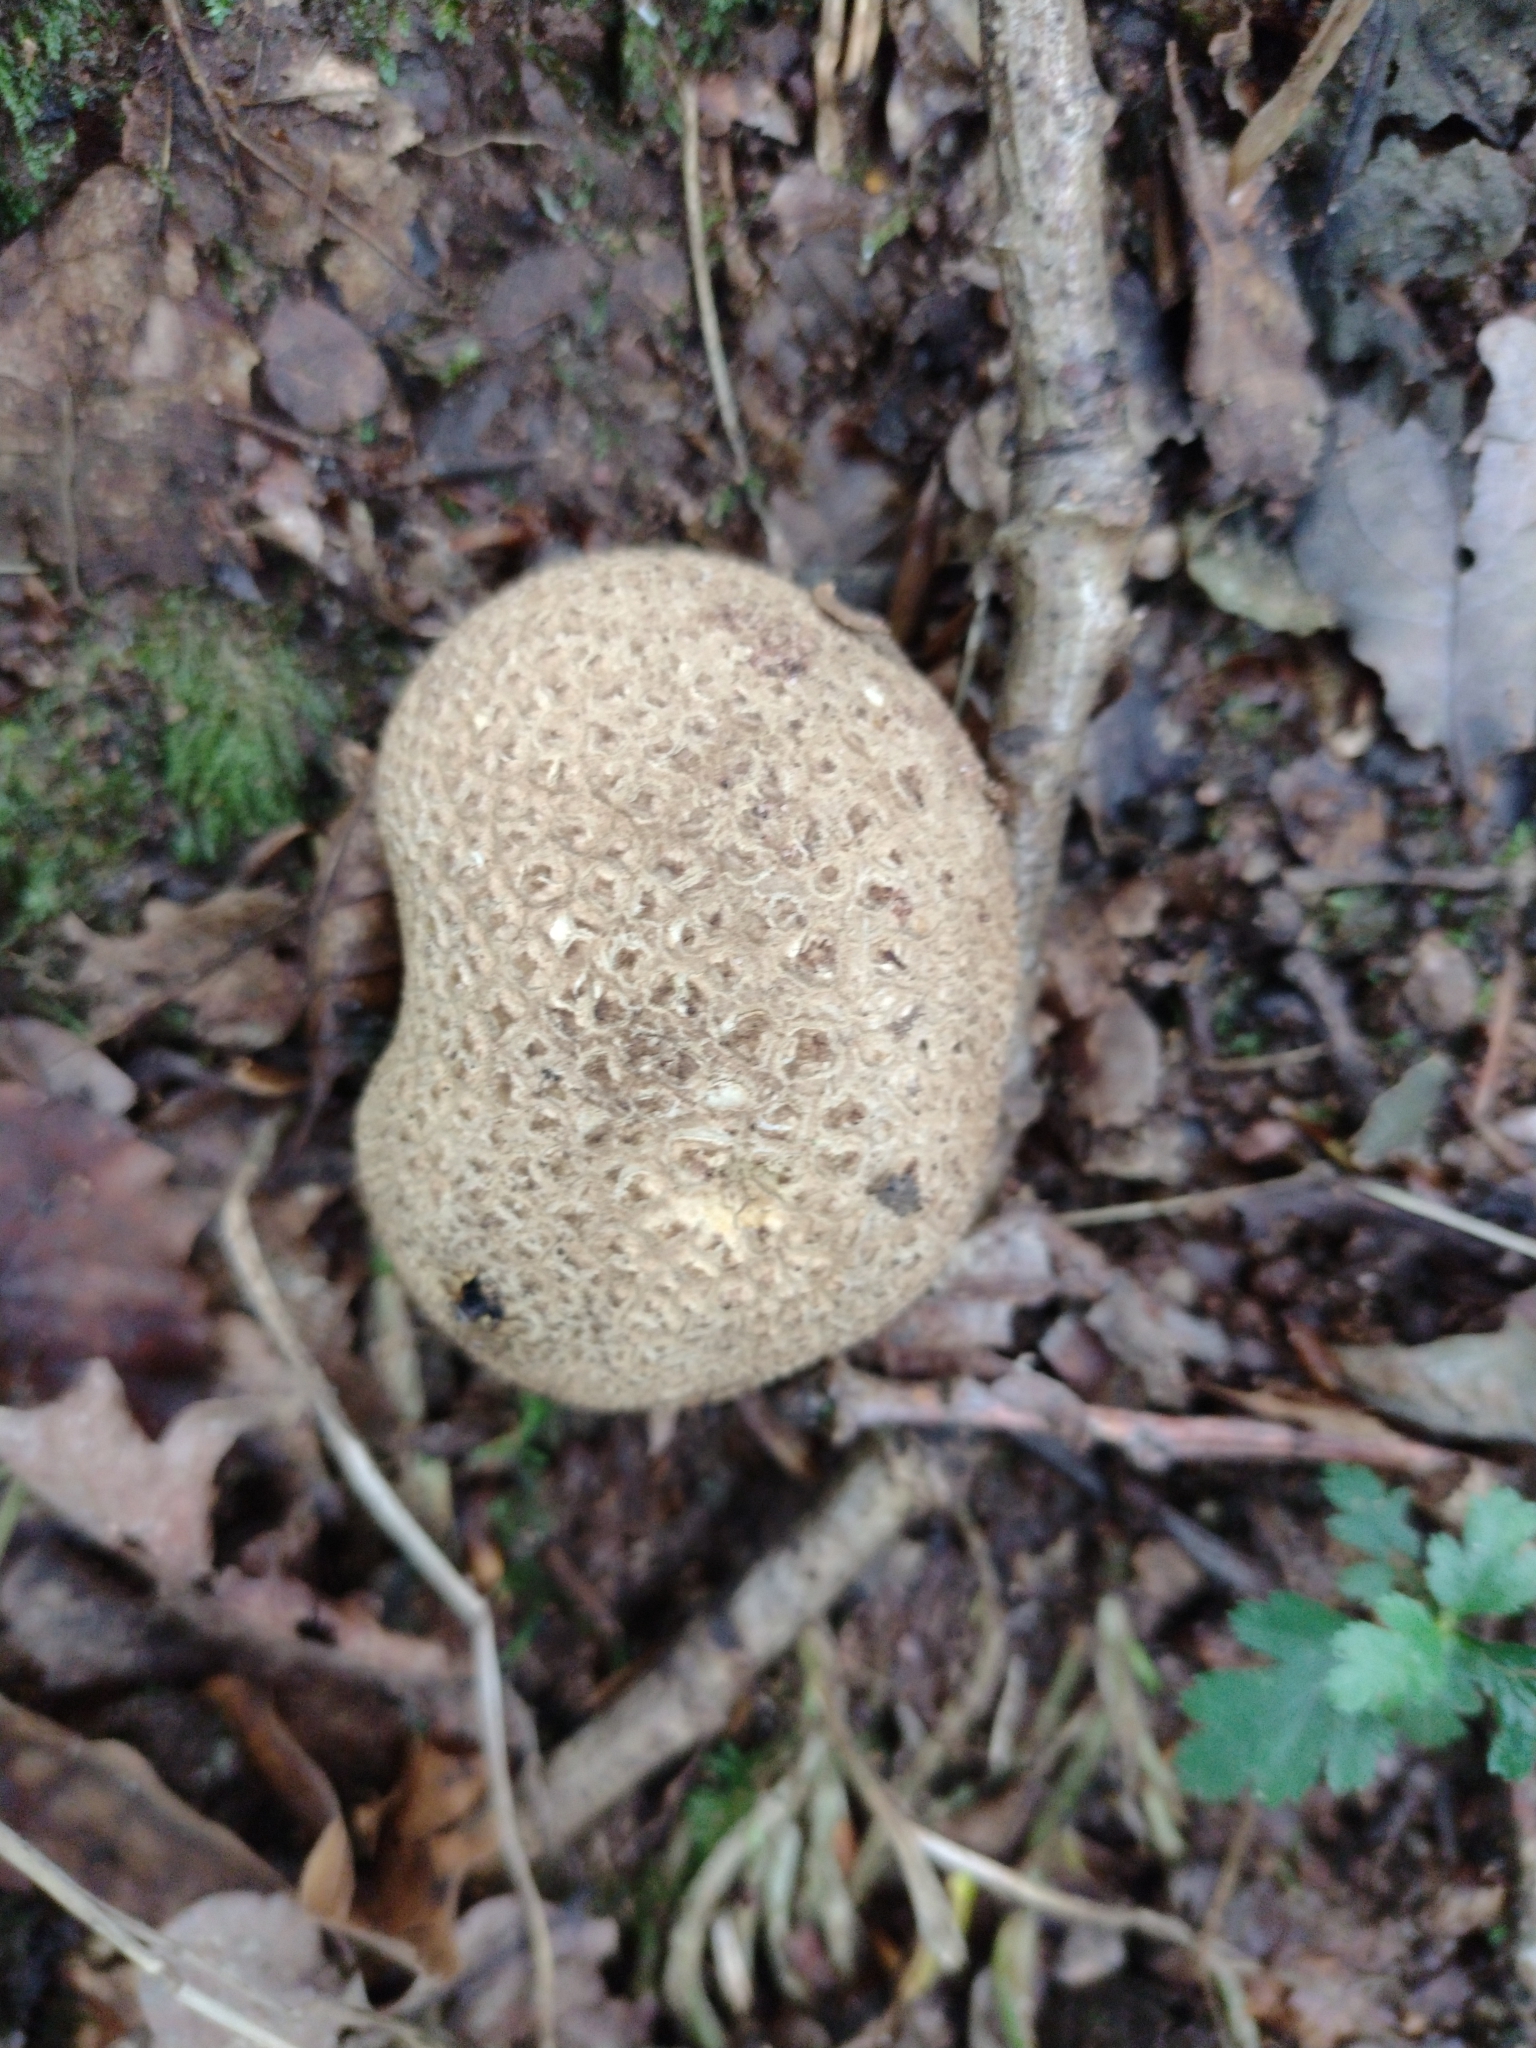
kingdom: Fungi
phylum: Basidiomycota
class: Agaricomycetes
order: Boletales
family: Sclerodermataceae
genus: Scleroderma
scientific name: Scleroderma citrinum
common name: Common earthball
